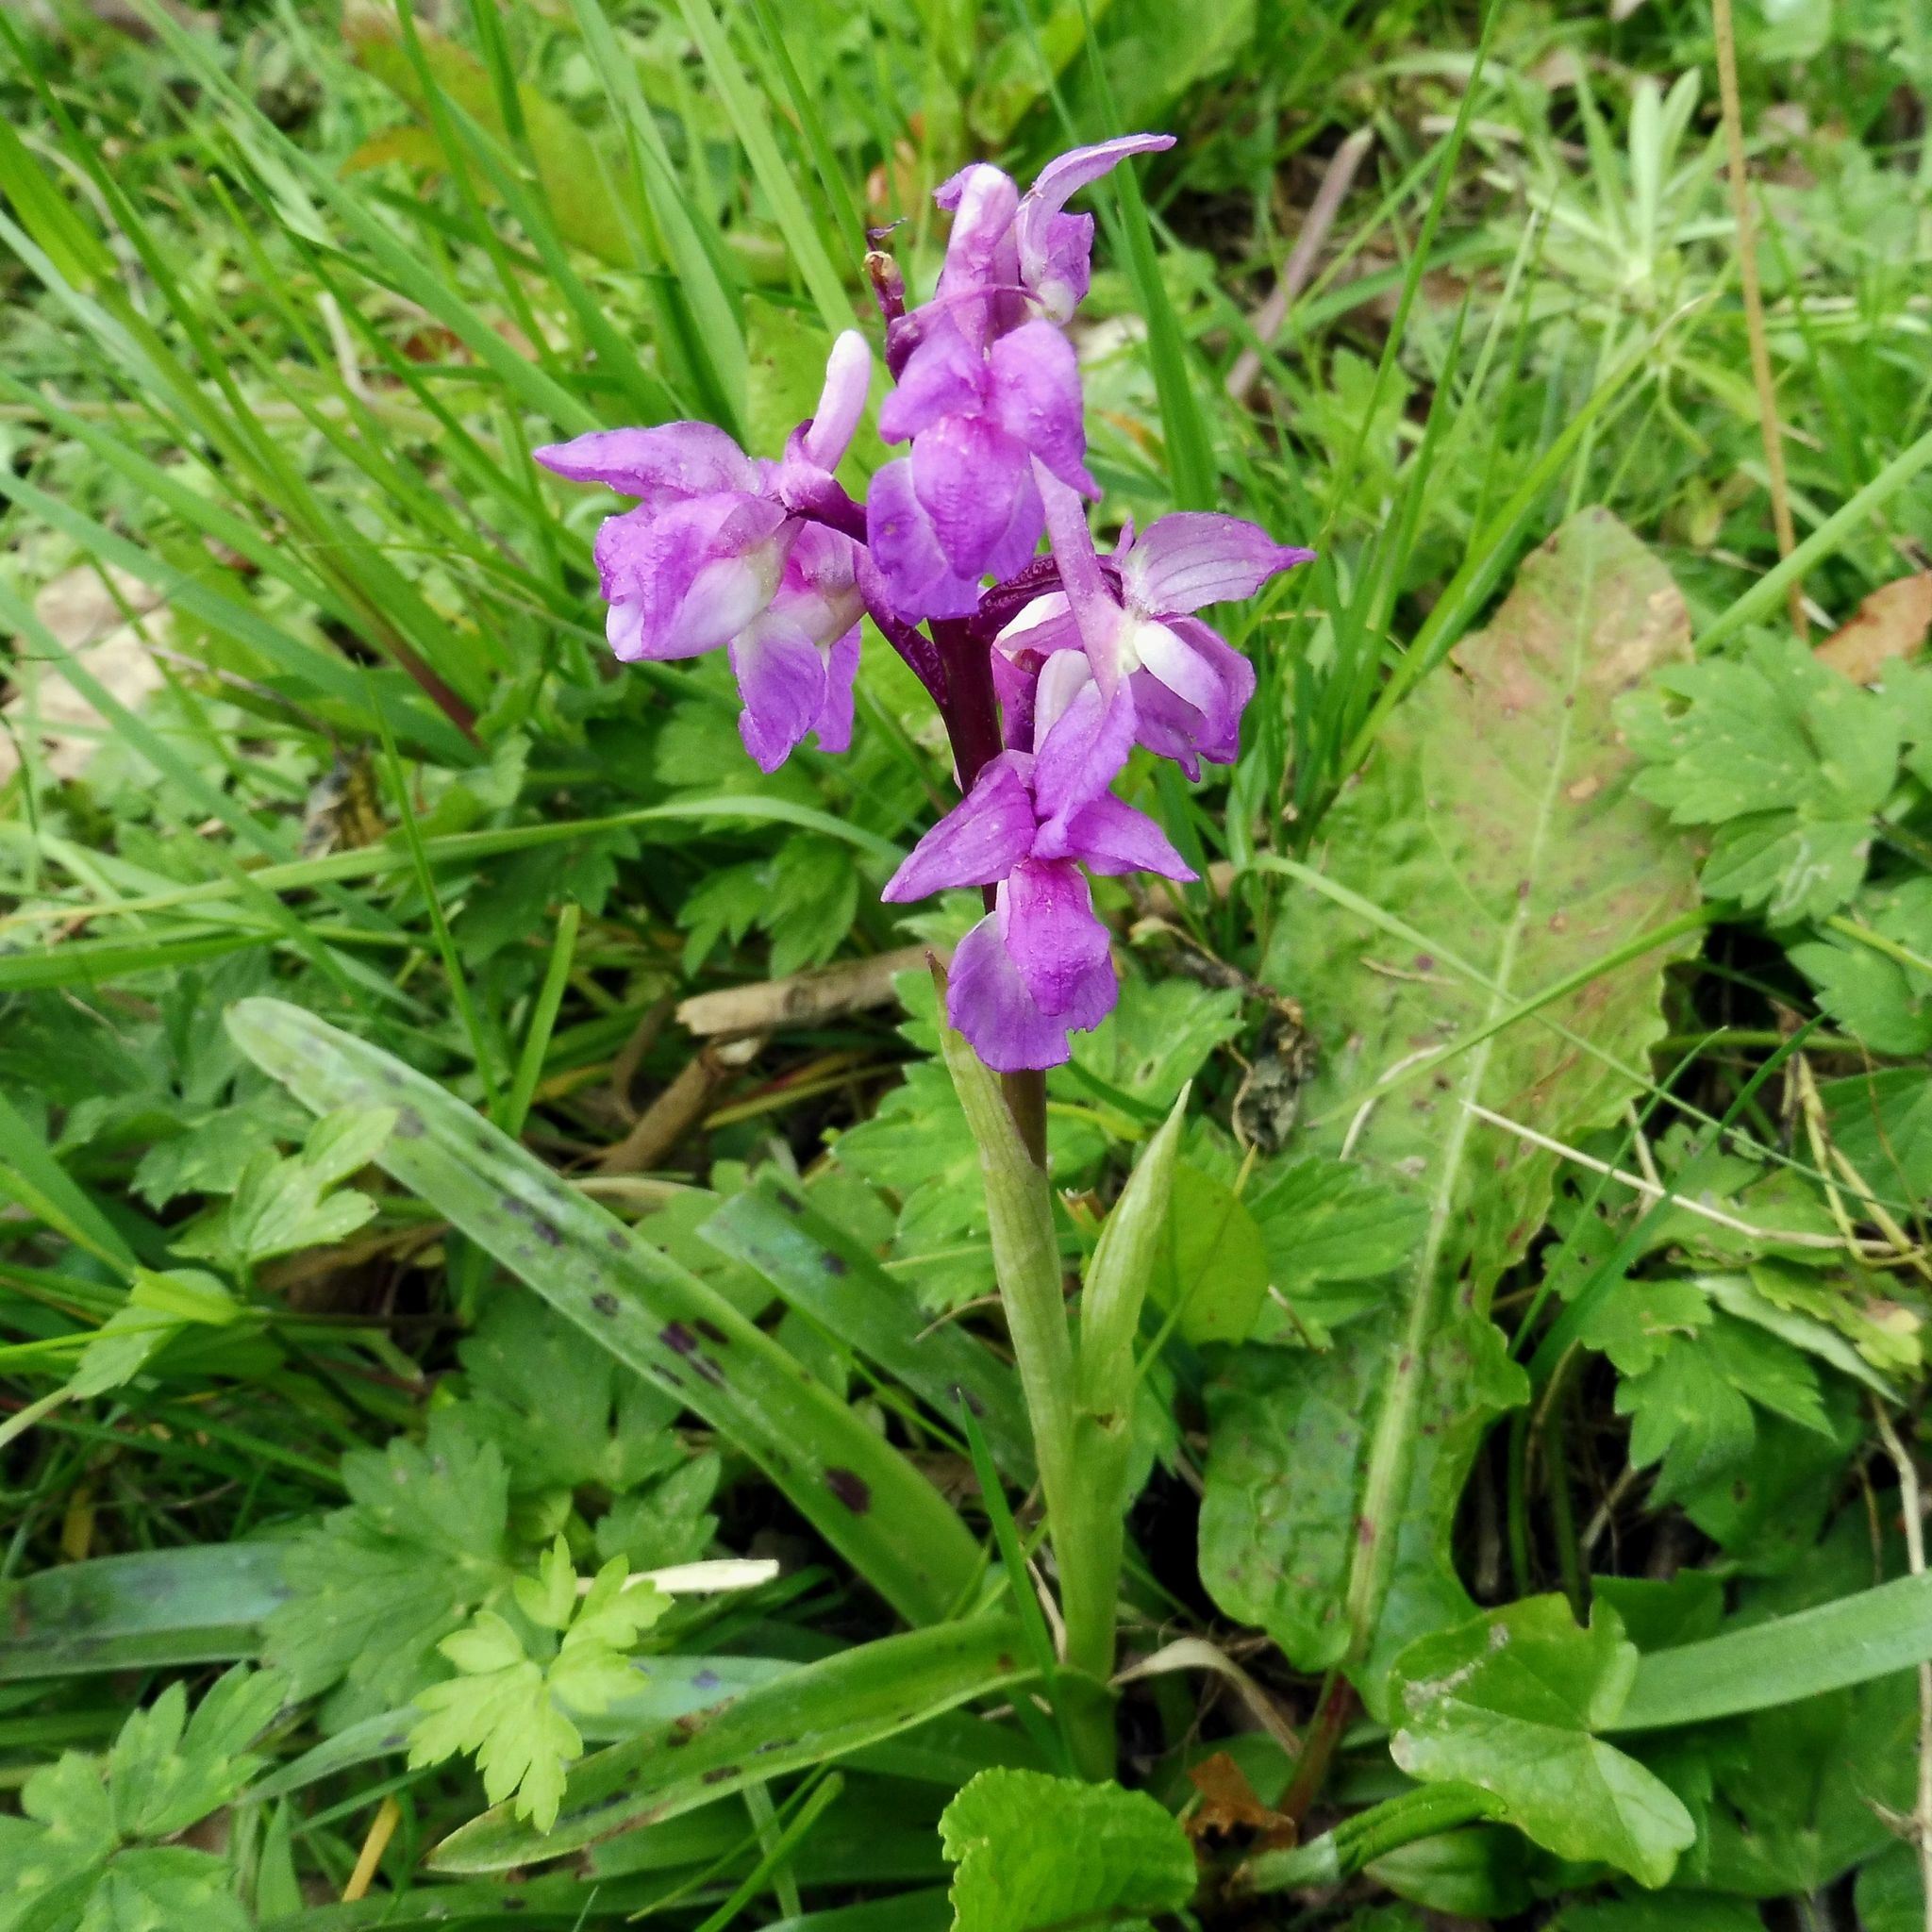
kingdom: Plantae
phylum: Tracheophyta
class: Liliopsida
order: Asparagales
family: Orchidaceae
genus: Orchis
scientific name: Orchis mascula
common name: Early-purple orchid
